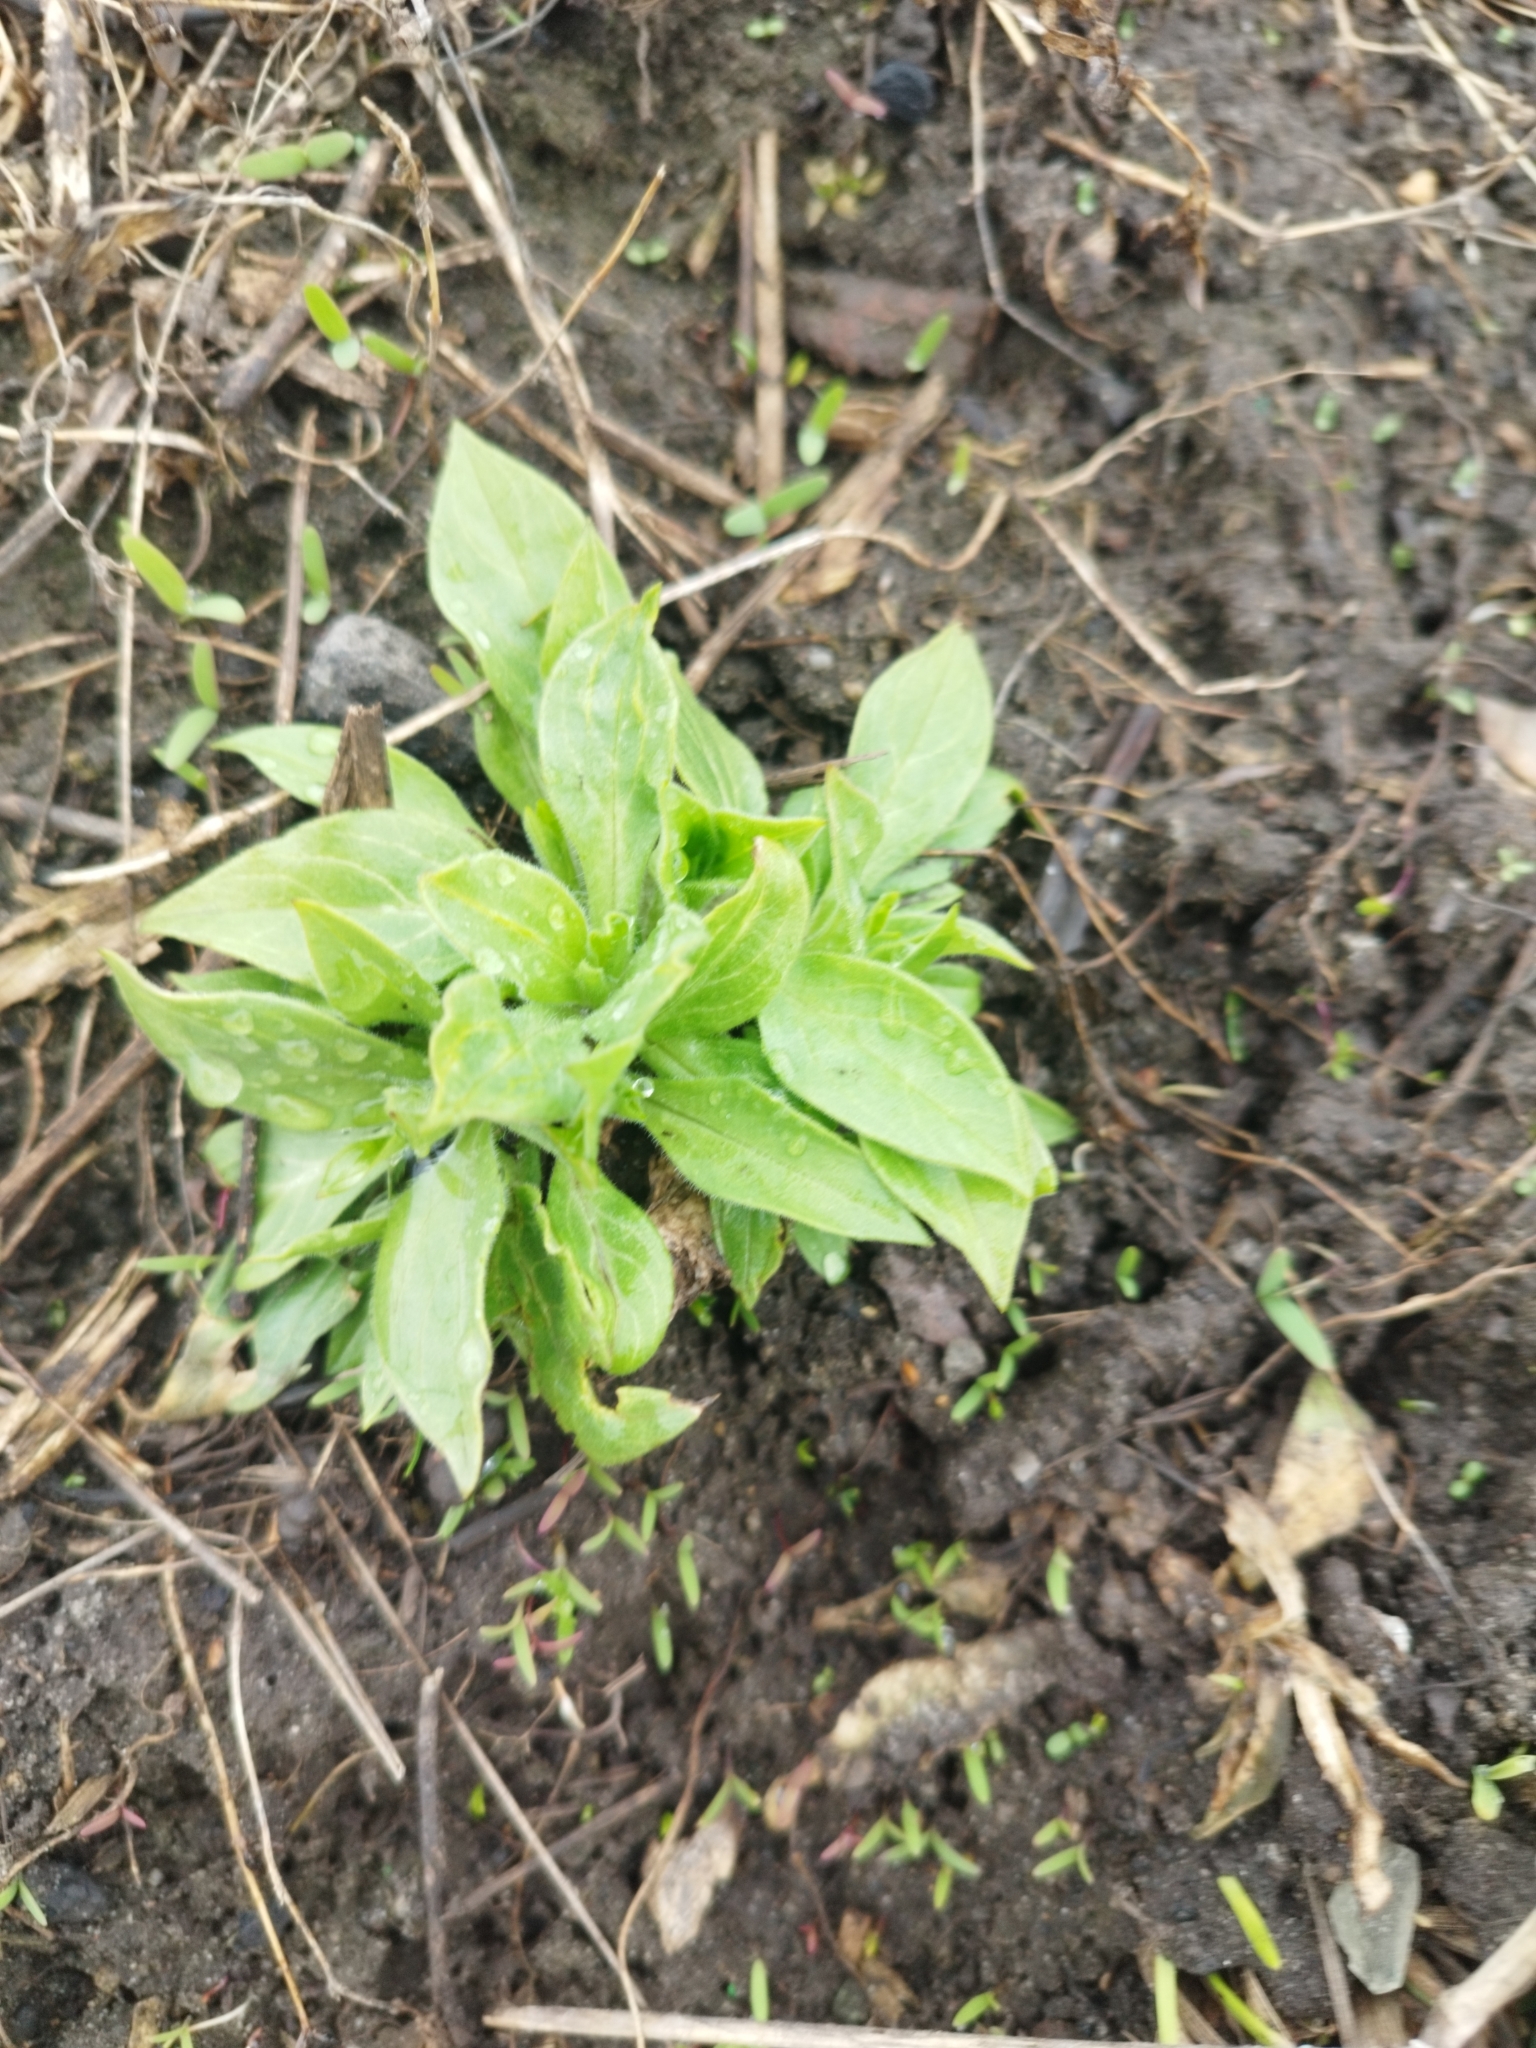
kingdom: Plantae
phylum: Tracheophyta
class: Magnoliopsida
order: Caryophyllales
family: Caryophyllaceae
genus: Silene
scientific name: Silene latifolia
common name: White campion
